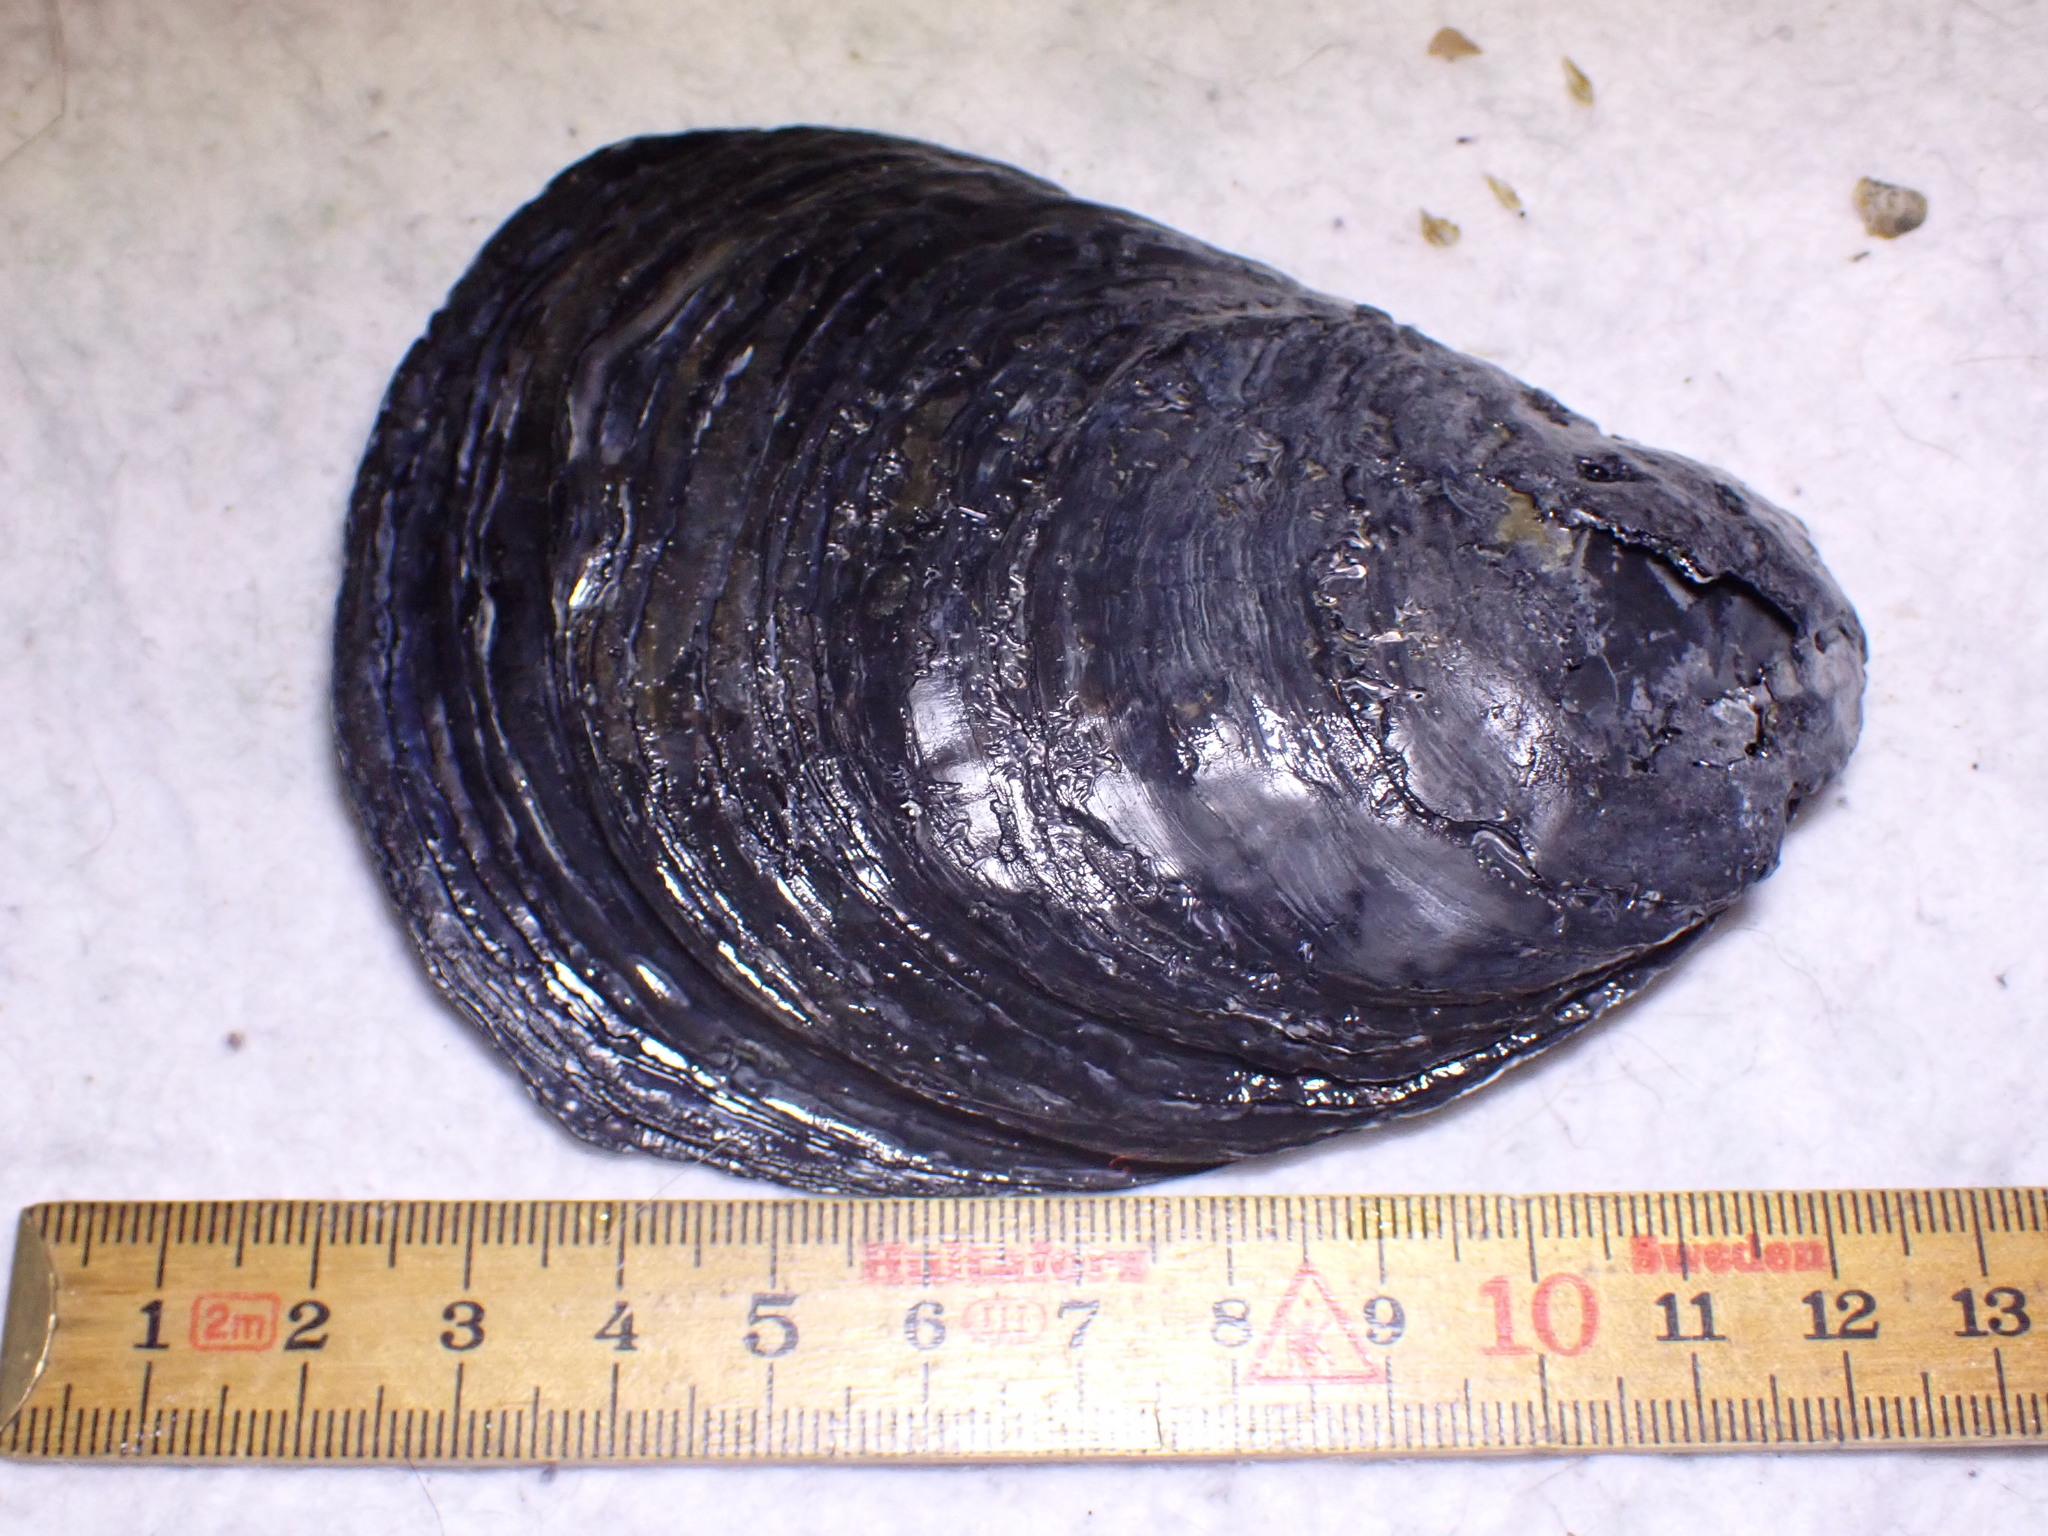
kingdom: Animalia
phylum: Mollusca
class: Bivalvia
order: Ostreida
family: Ostreidae
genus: Ostrea
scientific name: Ostrea edulis
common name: Flat oyster
